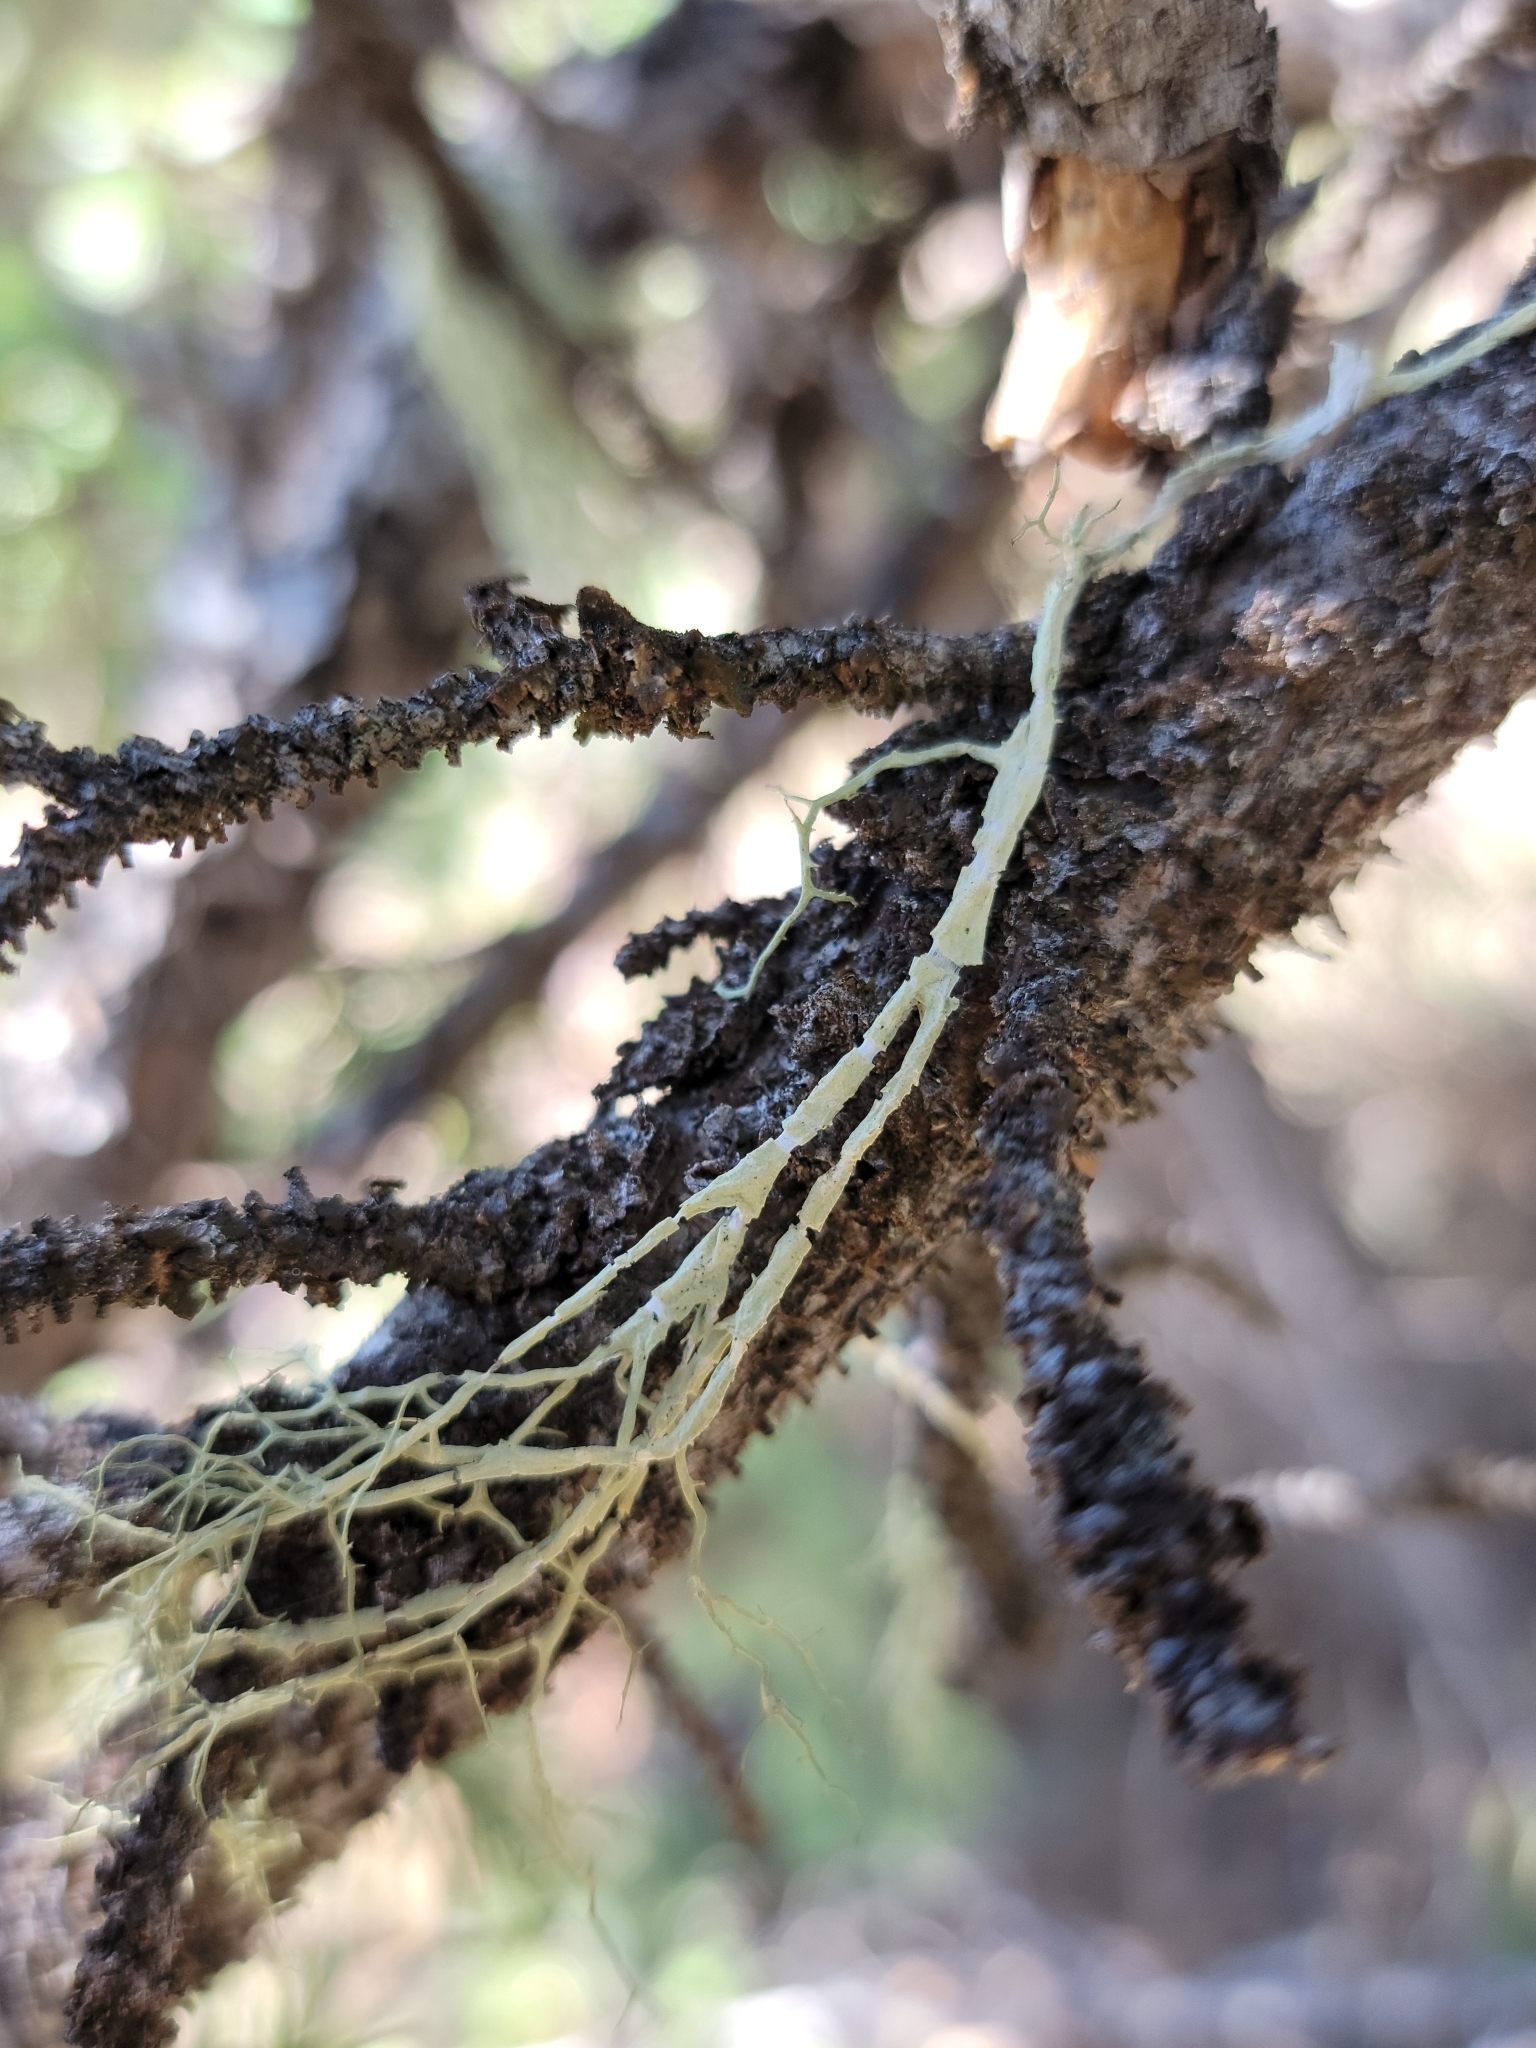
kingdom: Fungi
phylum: Ascomycota
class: Lecanoromycetes
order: Lecanorales
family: Parmeliaceae
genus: Evernia
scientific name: Evernia divaricata
